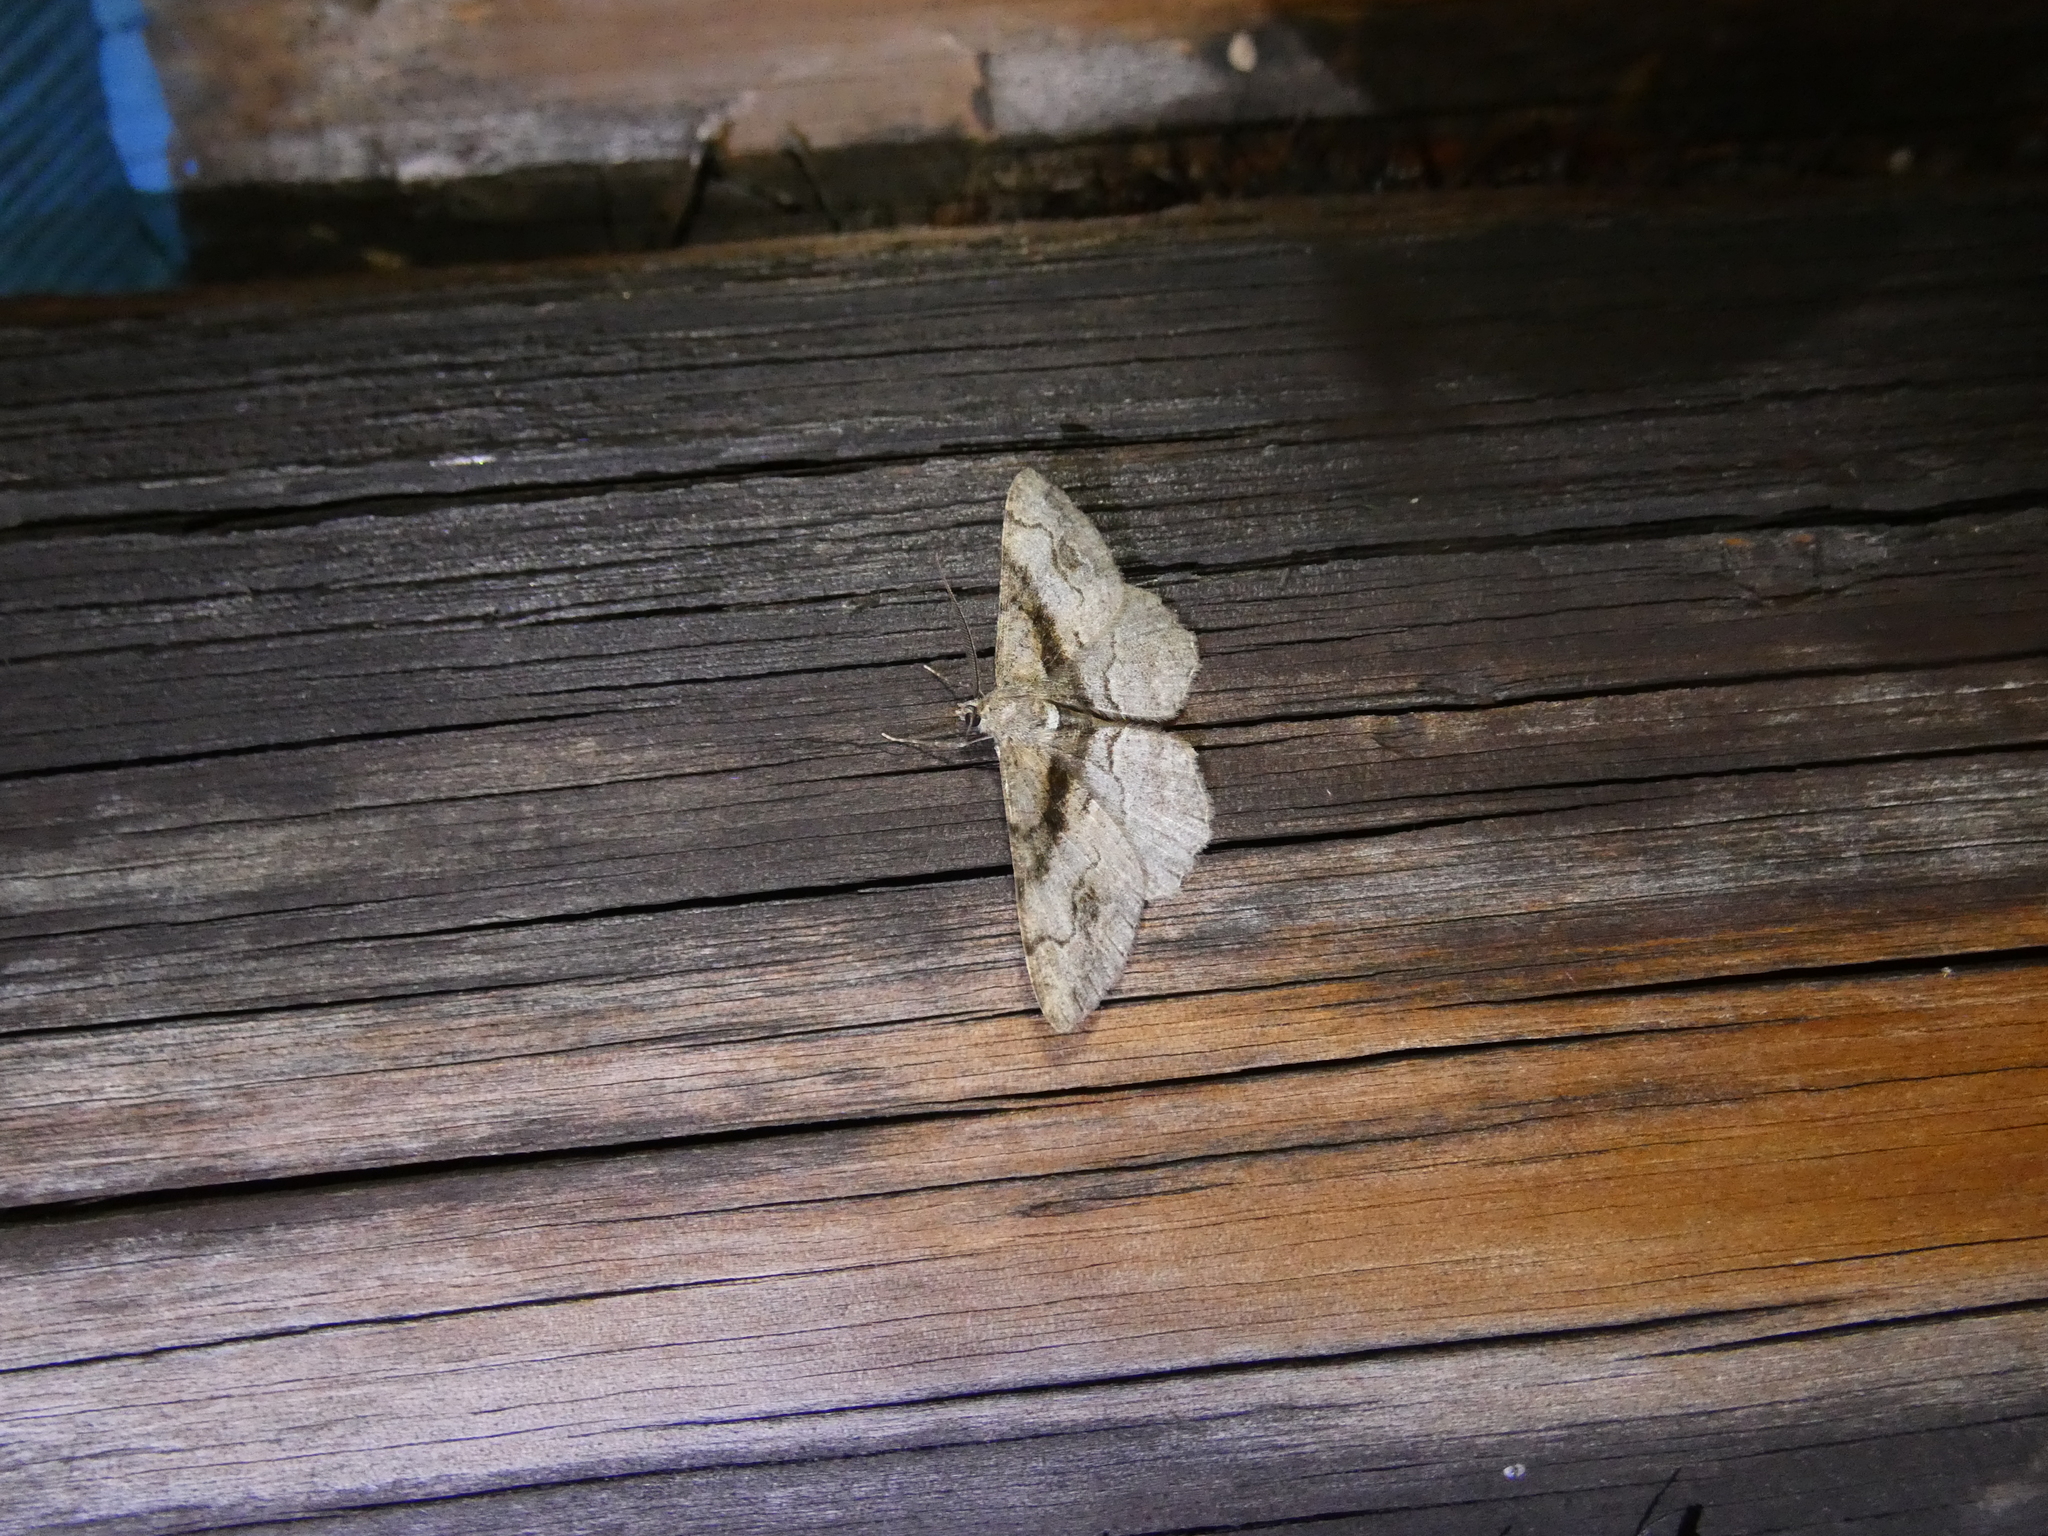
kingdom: Animalia
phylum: Arthropoda
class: Insecta
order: Lepidoptera
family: Geometridae
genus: Alcis
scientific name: Alcis deversata
